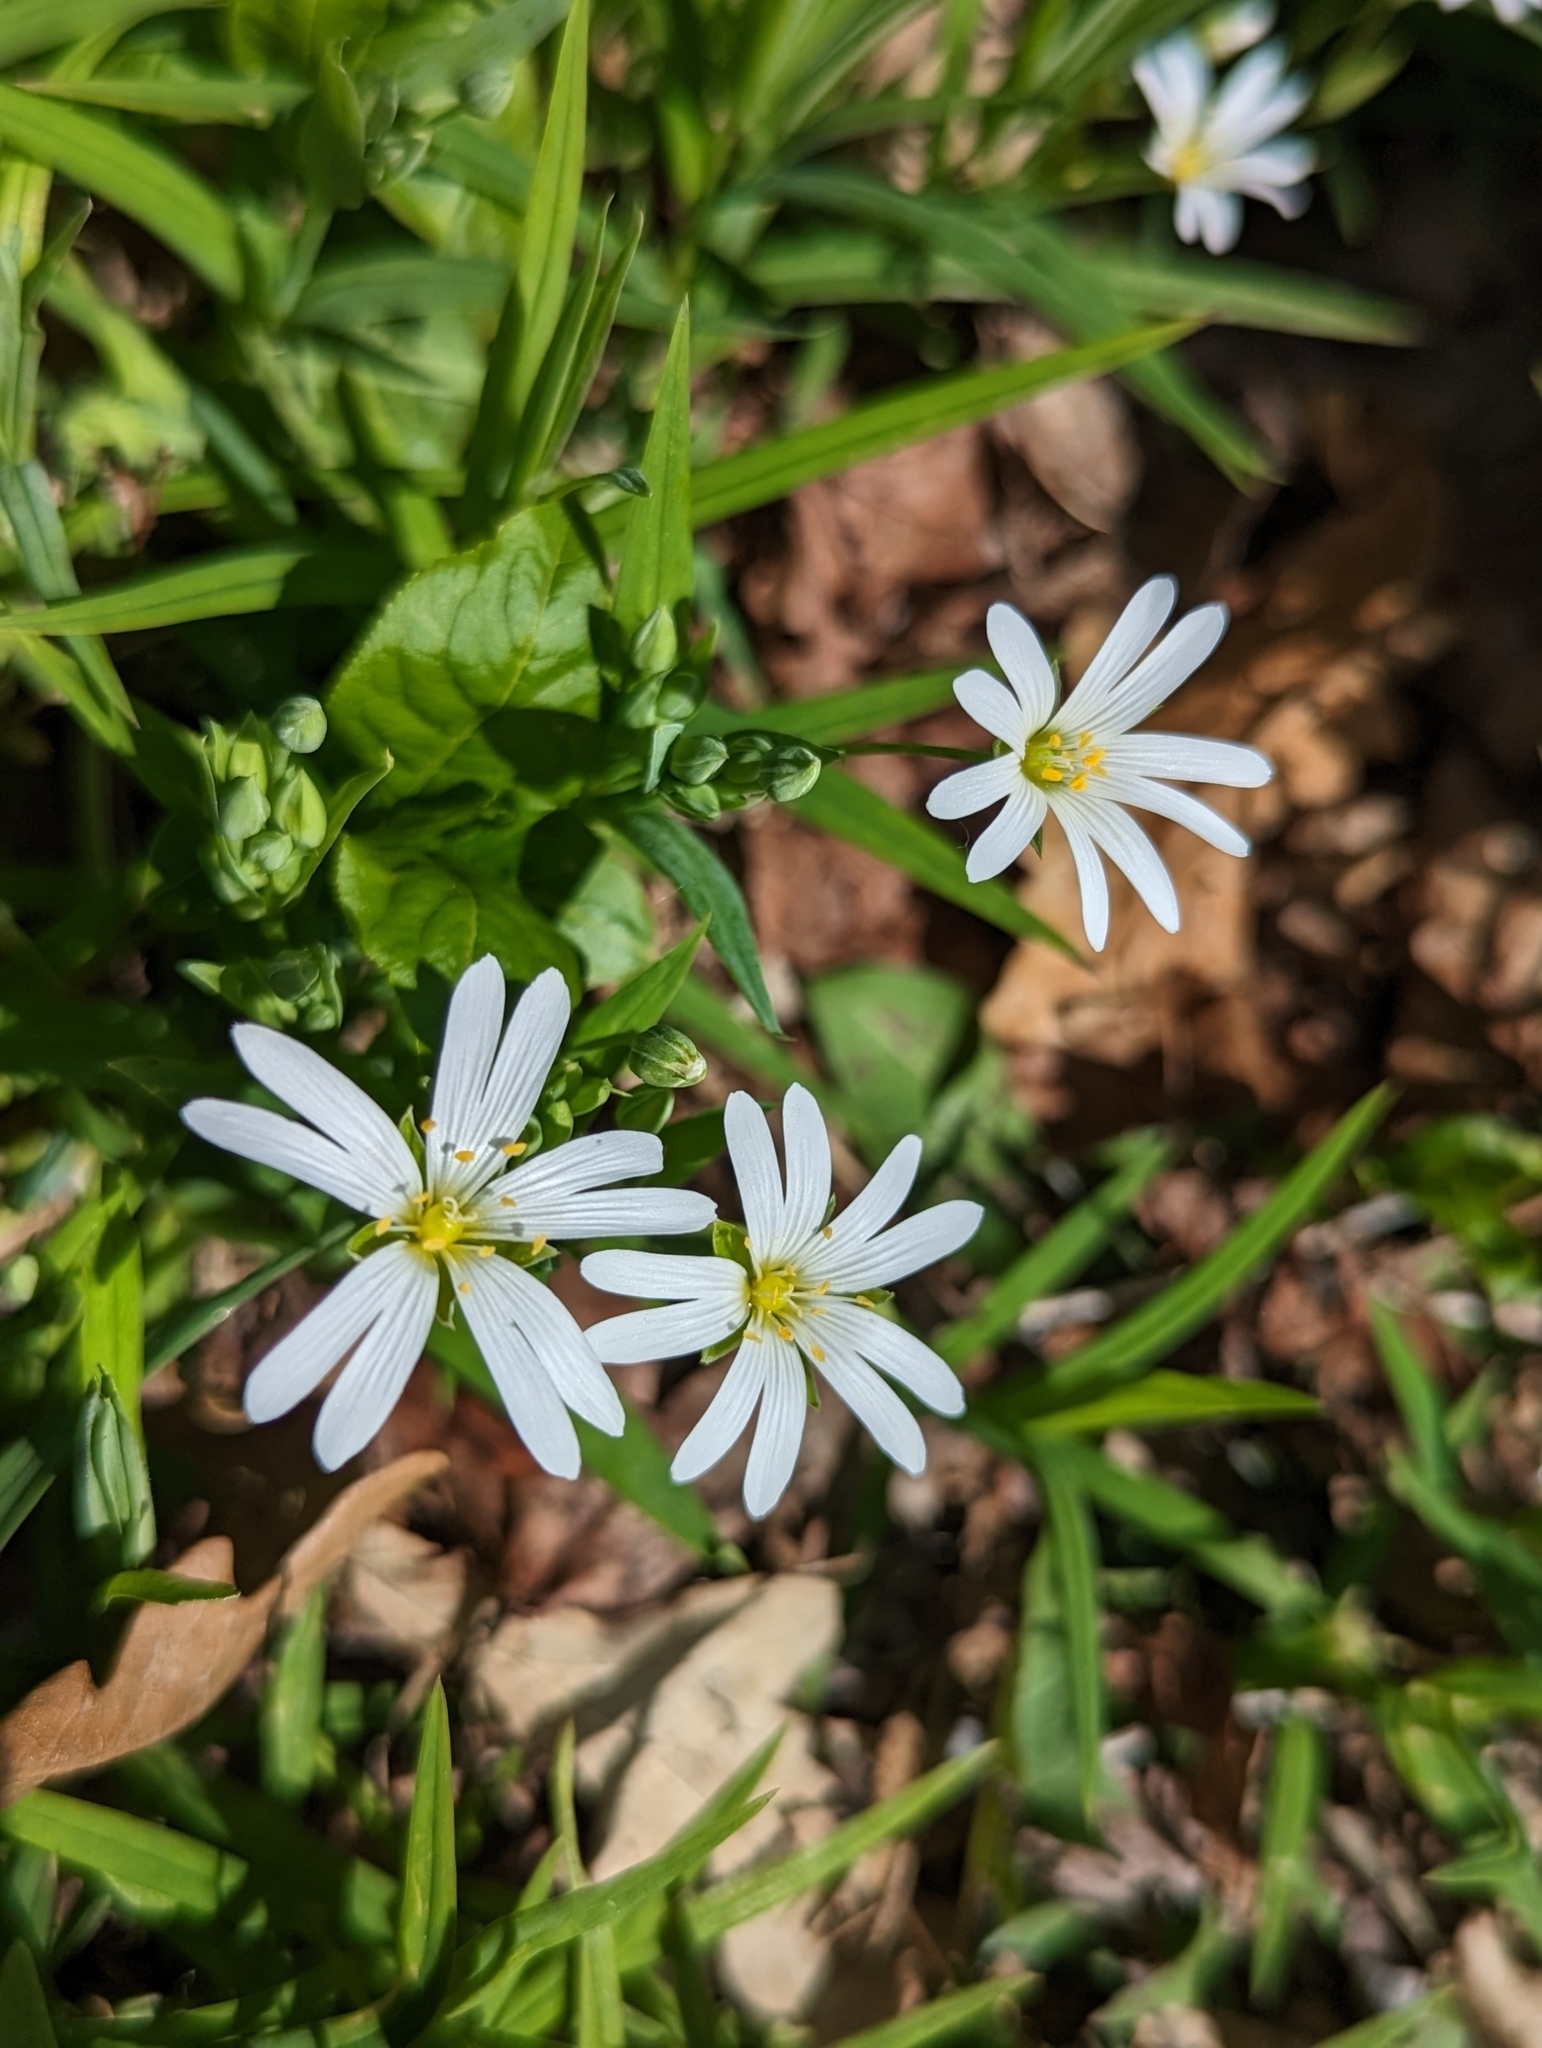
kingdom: Plantae
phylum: Tracheophyta
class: Magnoliopsida
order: Caryophyllales
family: Caryophyllaceae
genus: Rabelera
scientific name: Rabelera holostea
